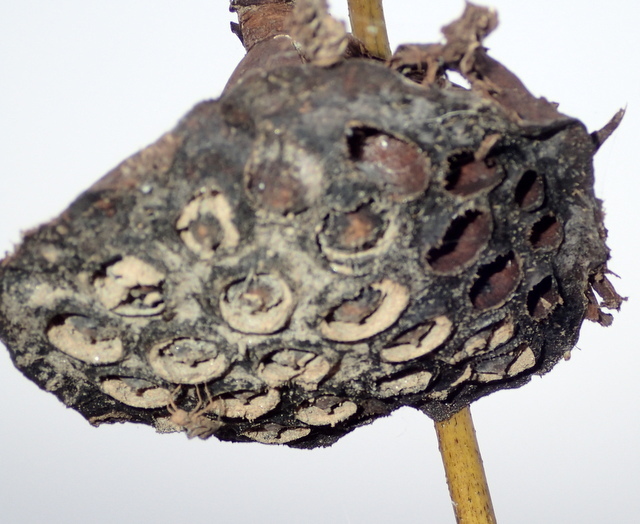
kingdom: Plantae
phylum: Tracheophyta
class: Magnoliopsida
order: Proteales
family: Nelumbonaceae
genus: Nelumbo
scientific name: Nelumbo lutea
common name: American lotus
